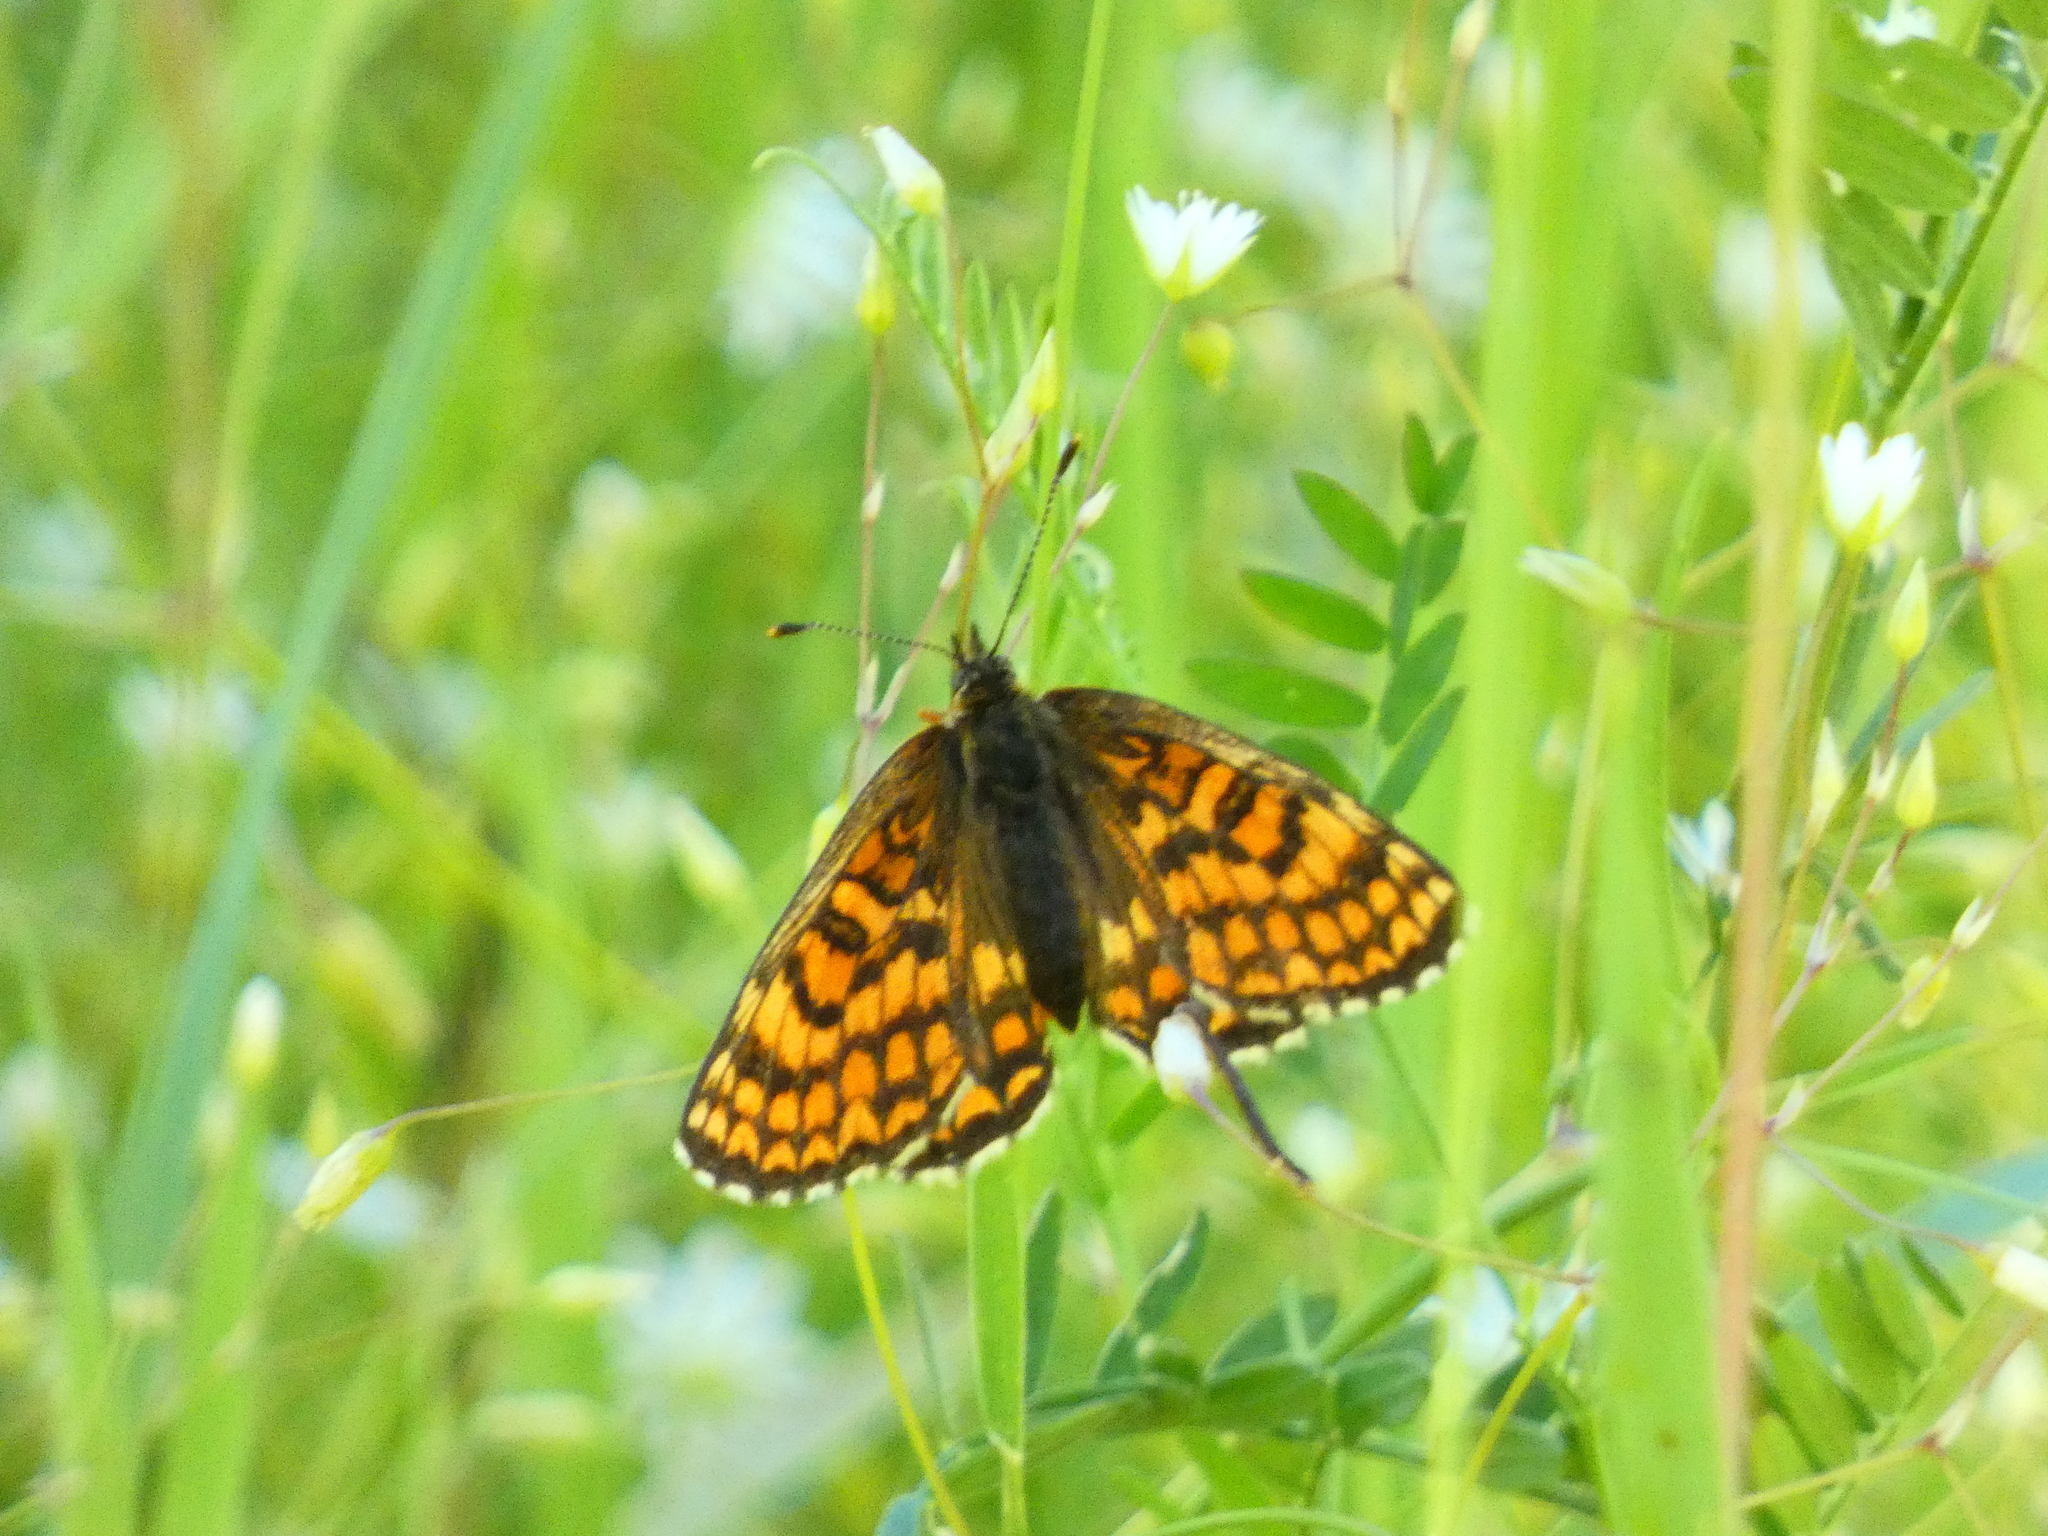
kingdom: Animalia
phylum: Arthropoda
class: Insecta
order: Lepidoptera
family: Nymphalidae
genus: Melitaea
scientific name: Melitaea athalia
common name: Heath fritillary
